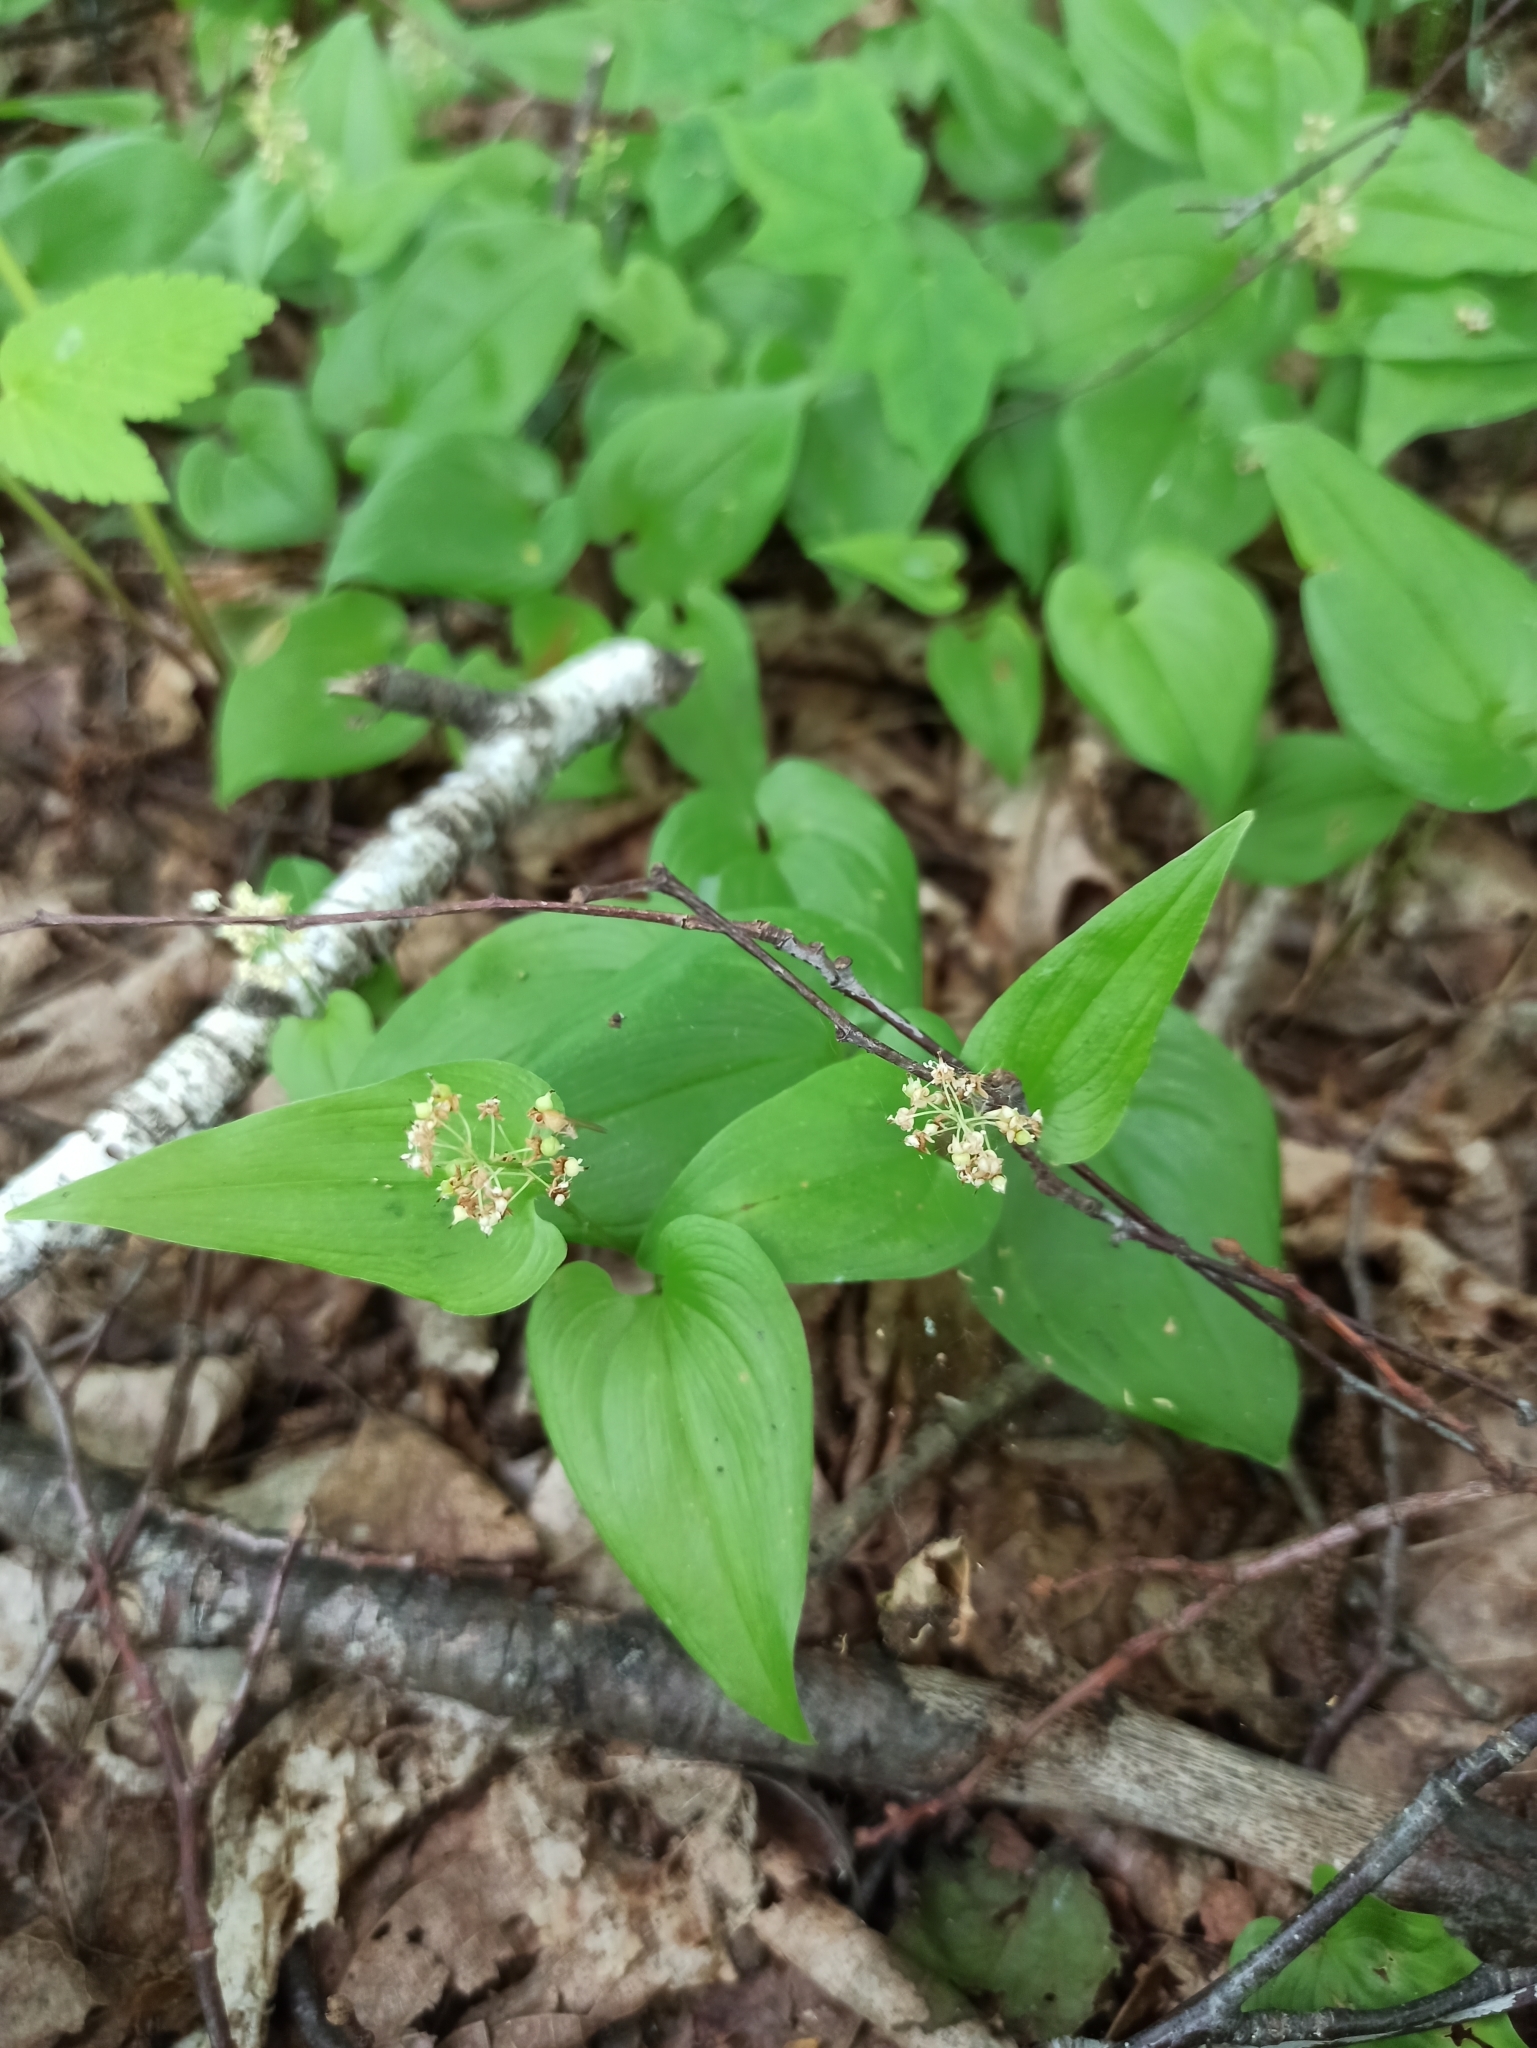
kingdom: Plantae
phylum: Tracheophyta
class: Liliopsida
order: Asparagales
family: Asparagaceae
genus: Maianthemum
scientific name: Maianthemum bifolium
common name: May lily
